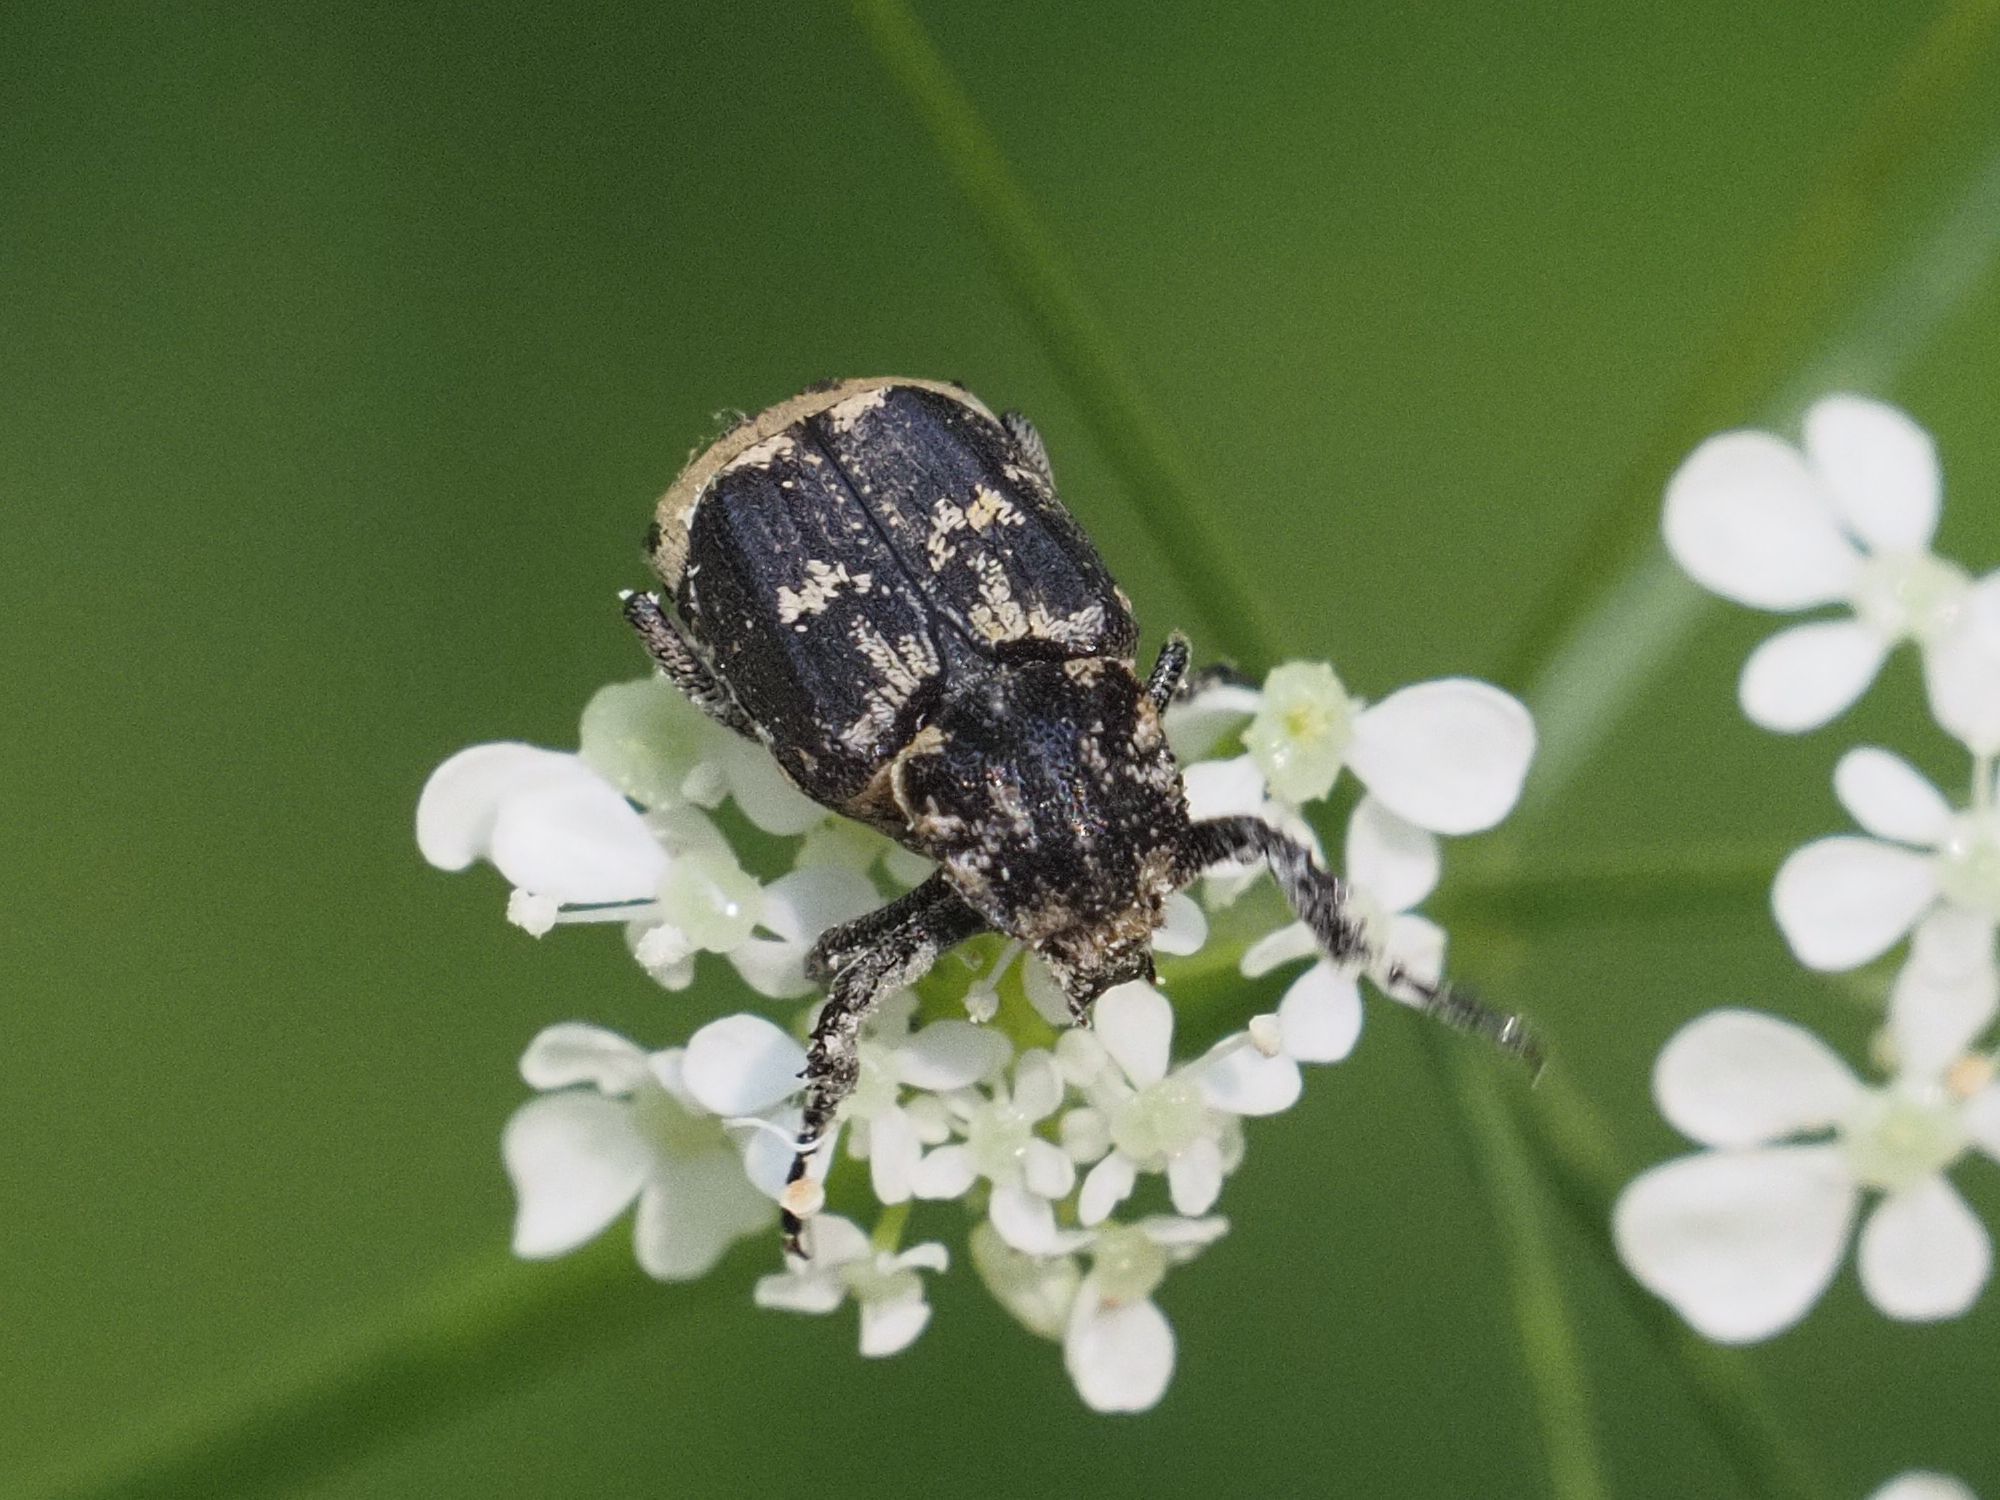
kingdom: Animalia
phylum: Arthropoda
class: Insecta
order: Coleoptera
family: Scarabaeidae
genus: Valgus
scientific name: Valgus hemipterus
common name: Bug flower chafer
